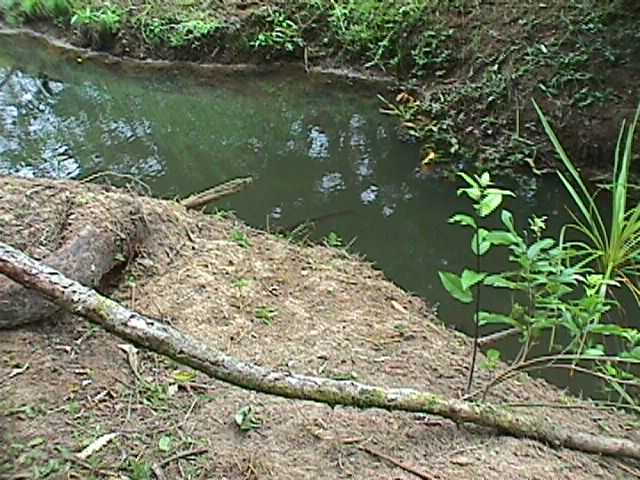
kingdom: Plantae
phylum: Tracheophyta
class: Magnoliopsida
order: Malpighiales
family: Violaceae
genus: Melicytus
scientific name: Melicytus ramiflorus
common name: Mahoe
